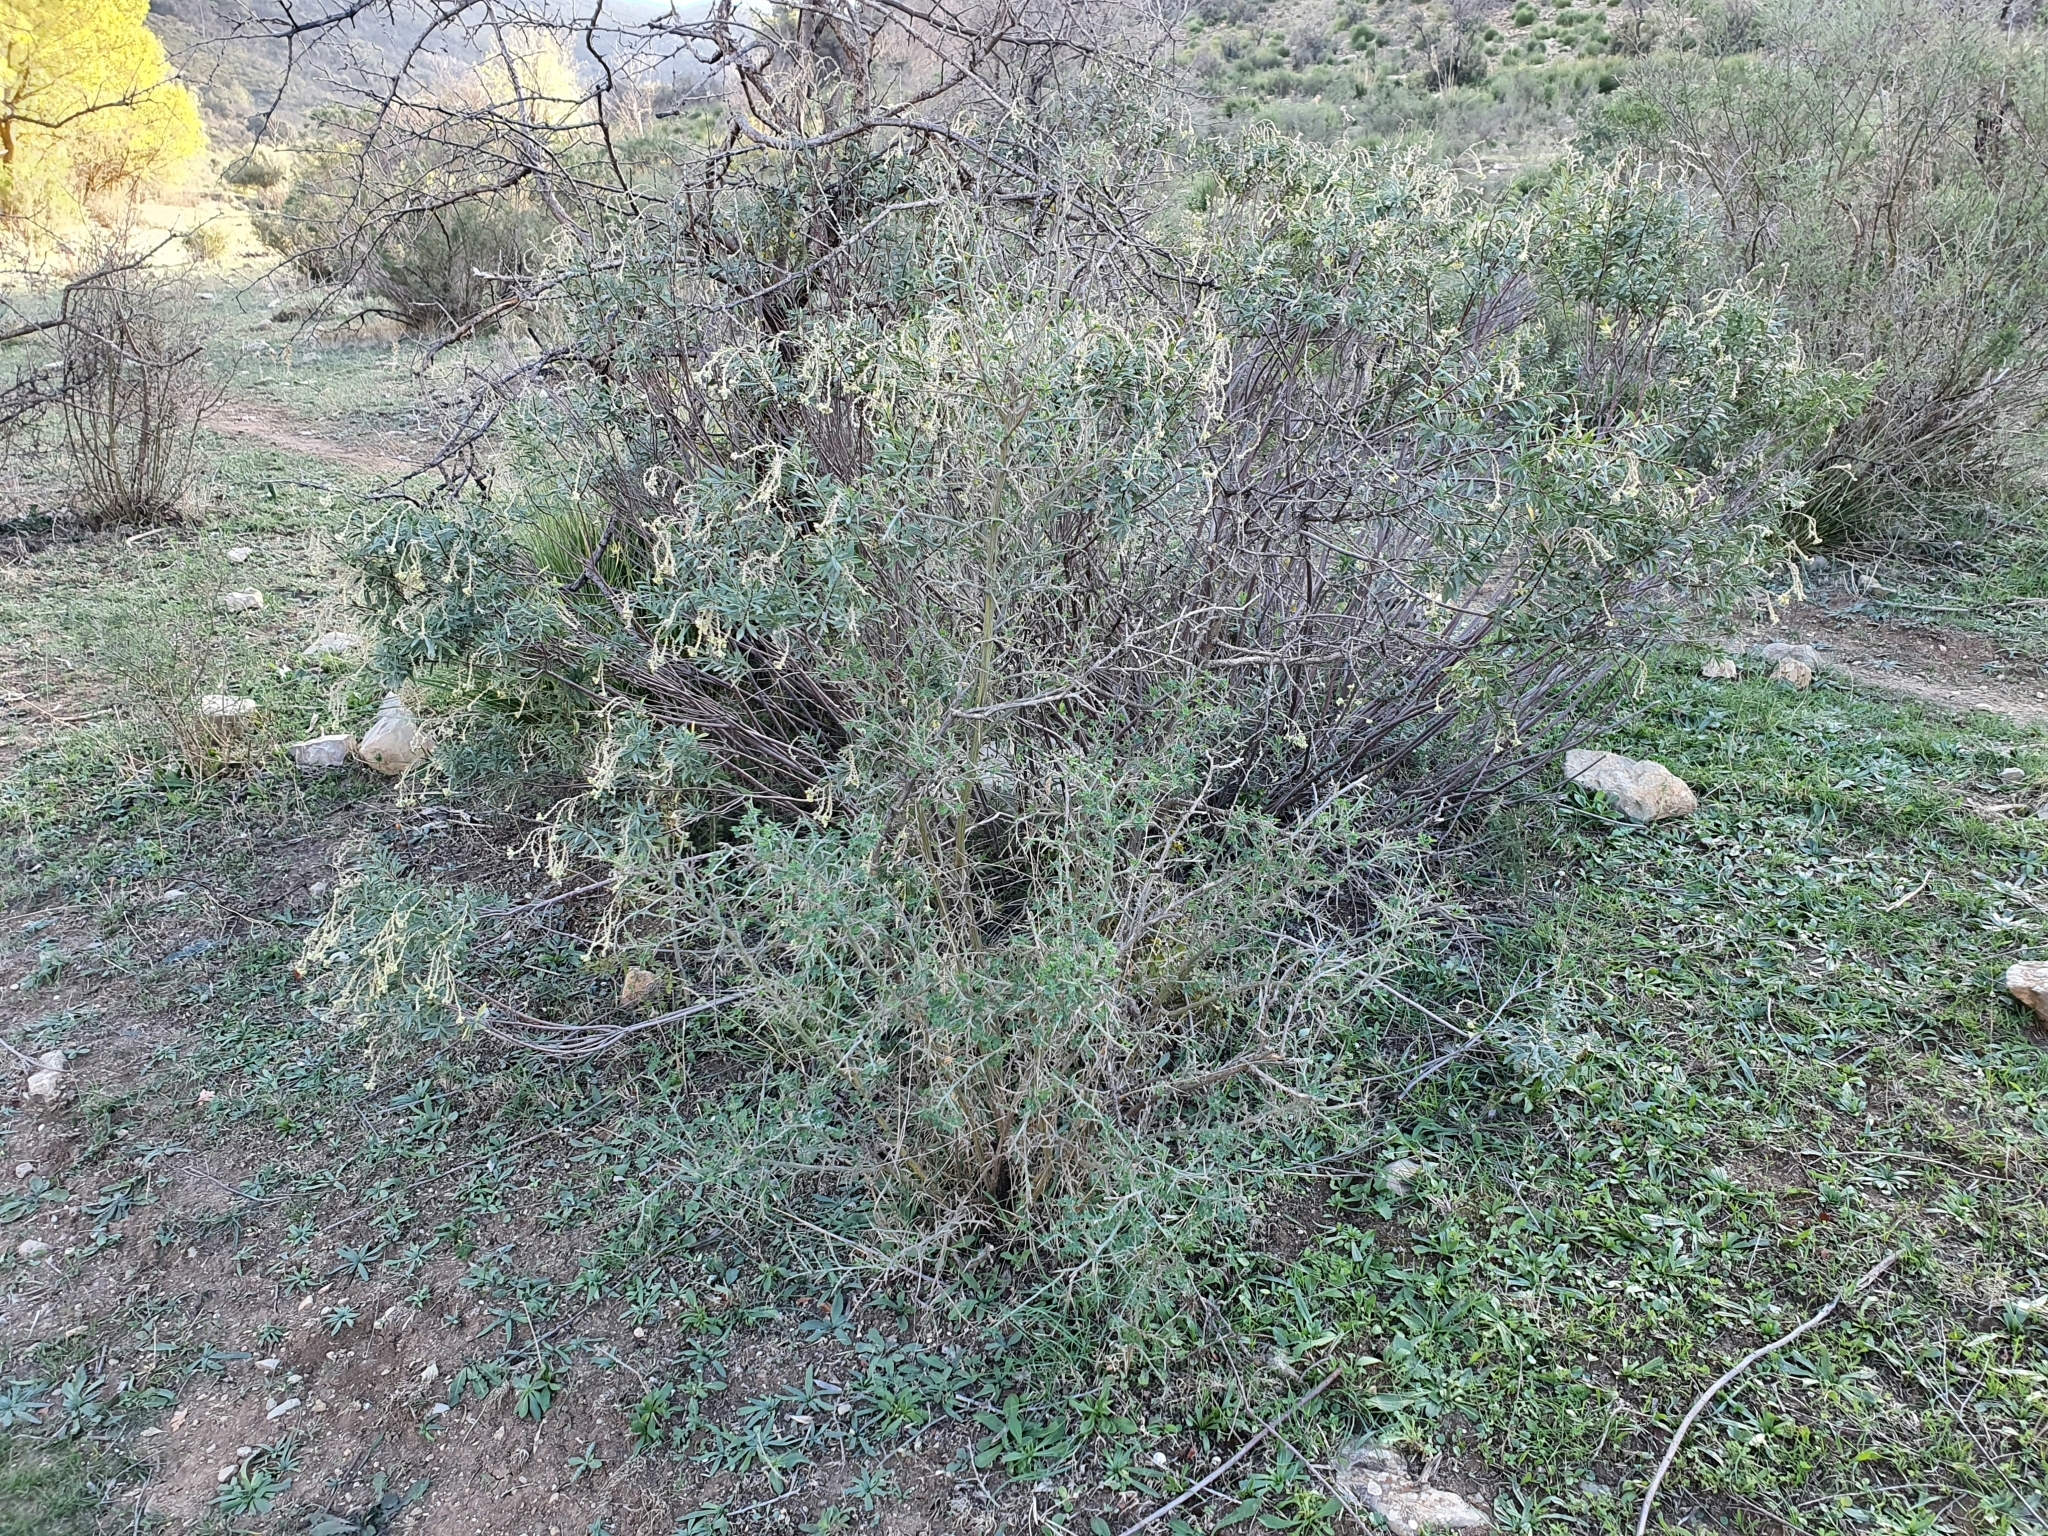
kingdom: Plantae
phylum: Tracheophyta
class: Magnoliopsida
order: Malvales
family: Thymelaeaceae
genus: Daphne
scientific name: Daphne gnidium
